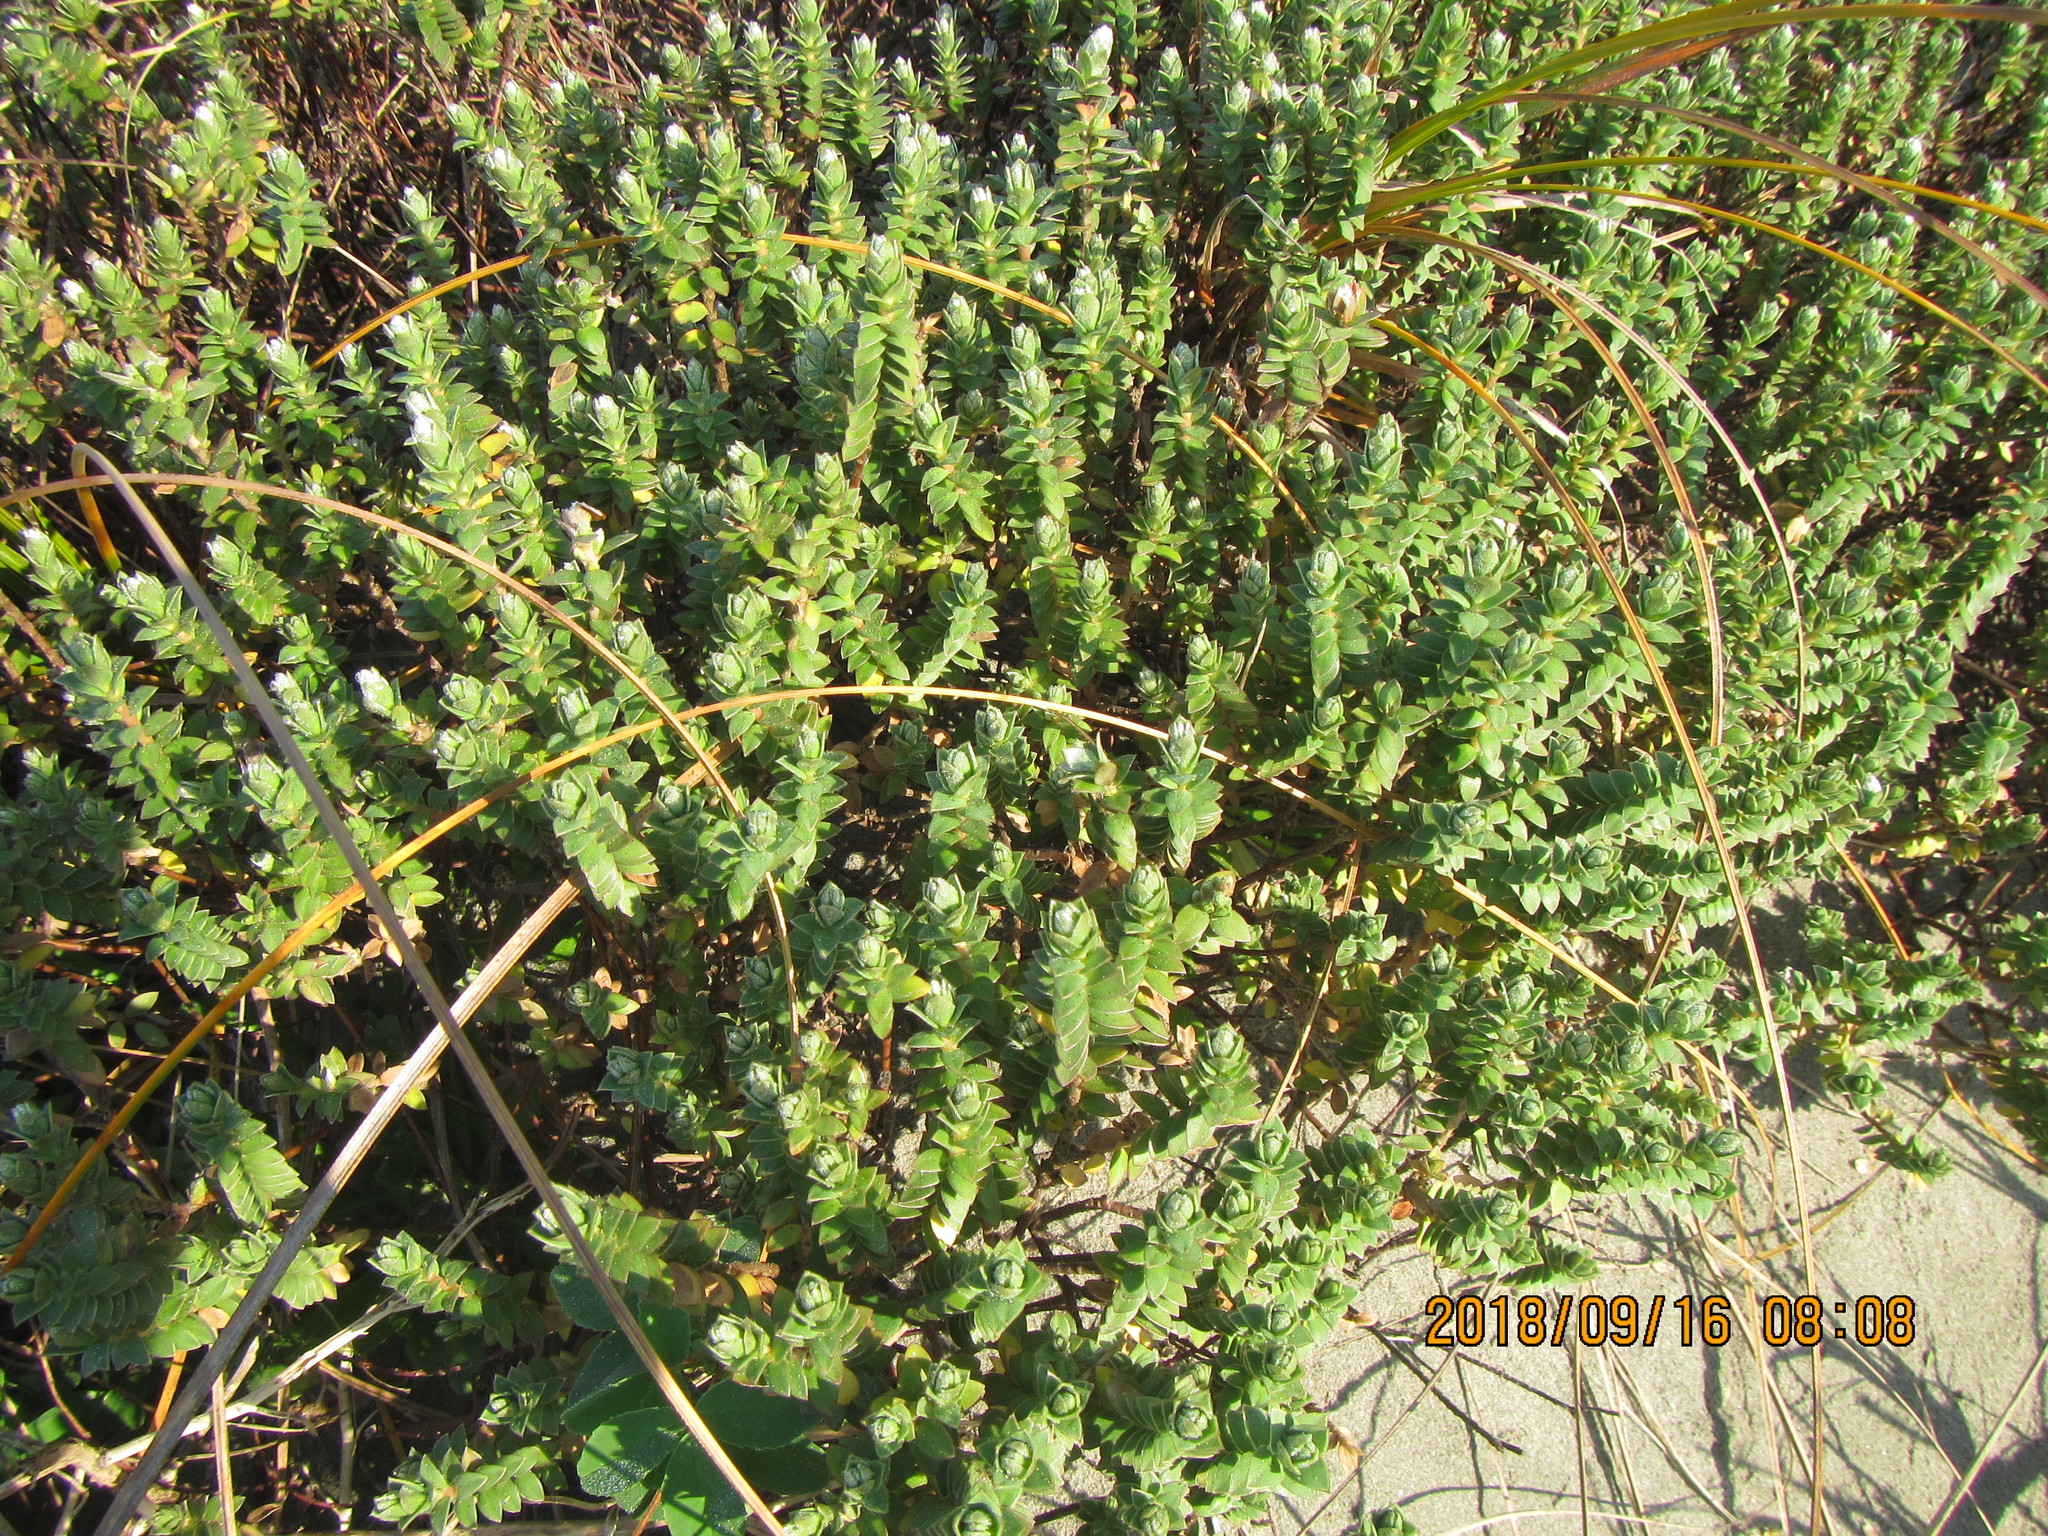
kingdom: Plantae
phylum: Tracheophyta
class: Magnoliopsida
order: Malvales
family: Thymelaeaceae
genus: Pimelea
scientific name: Pimelea villosa
